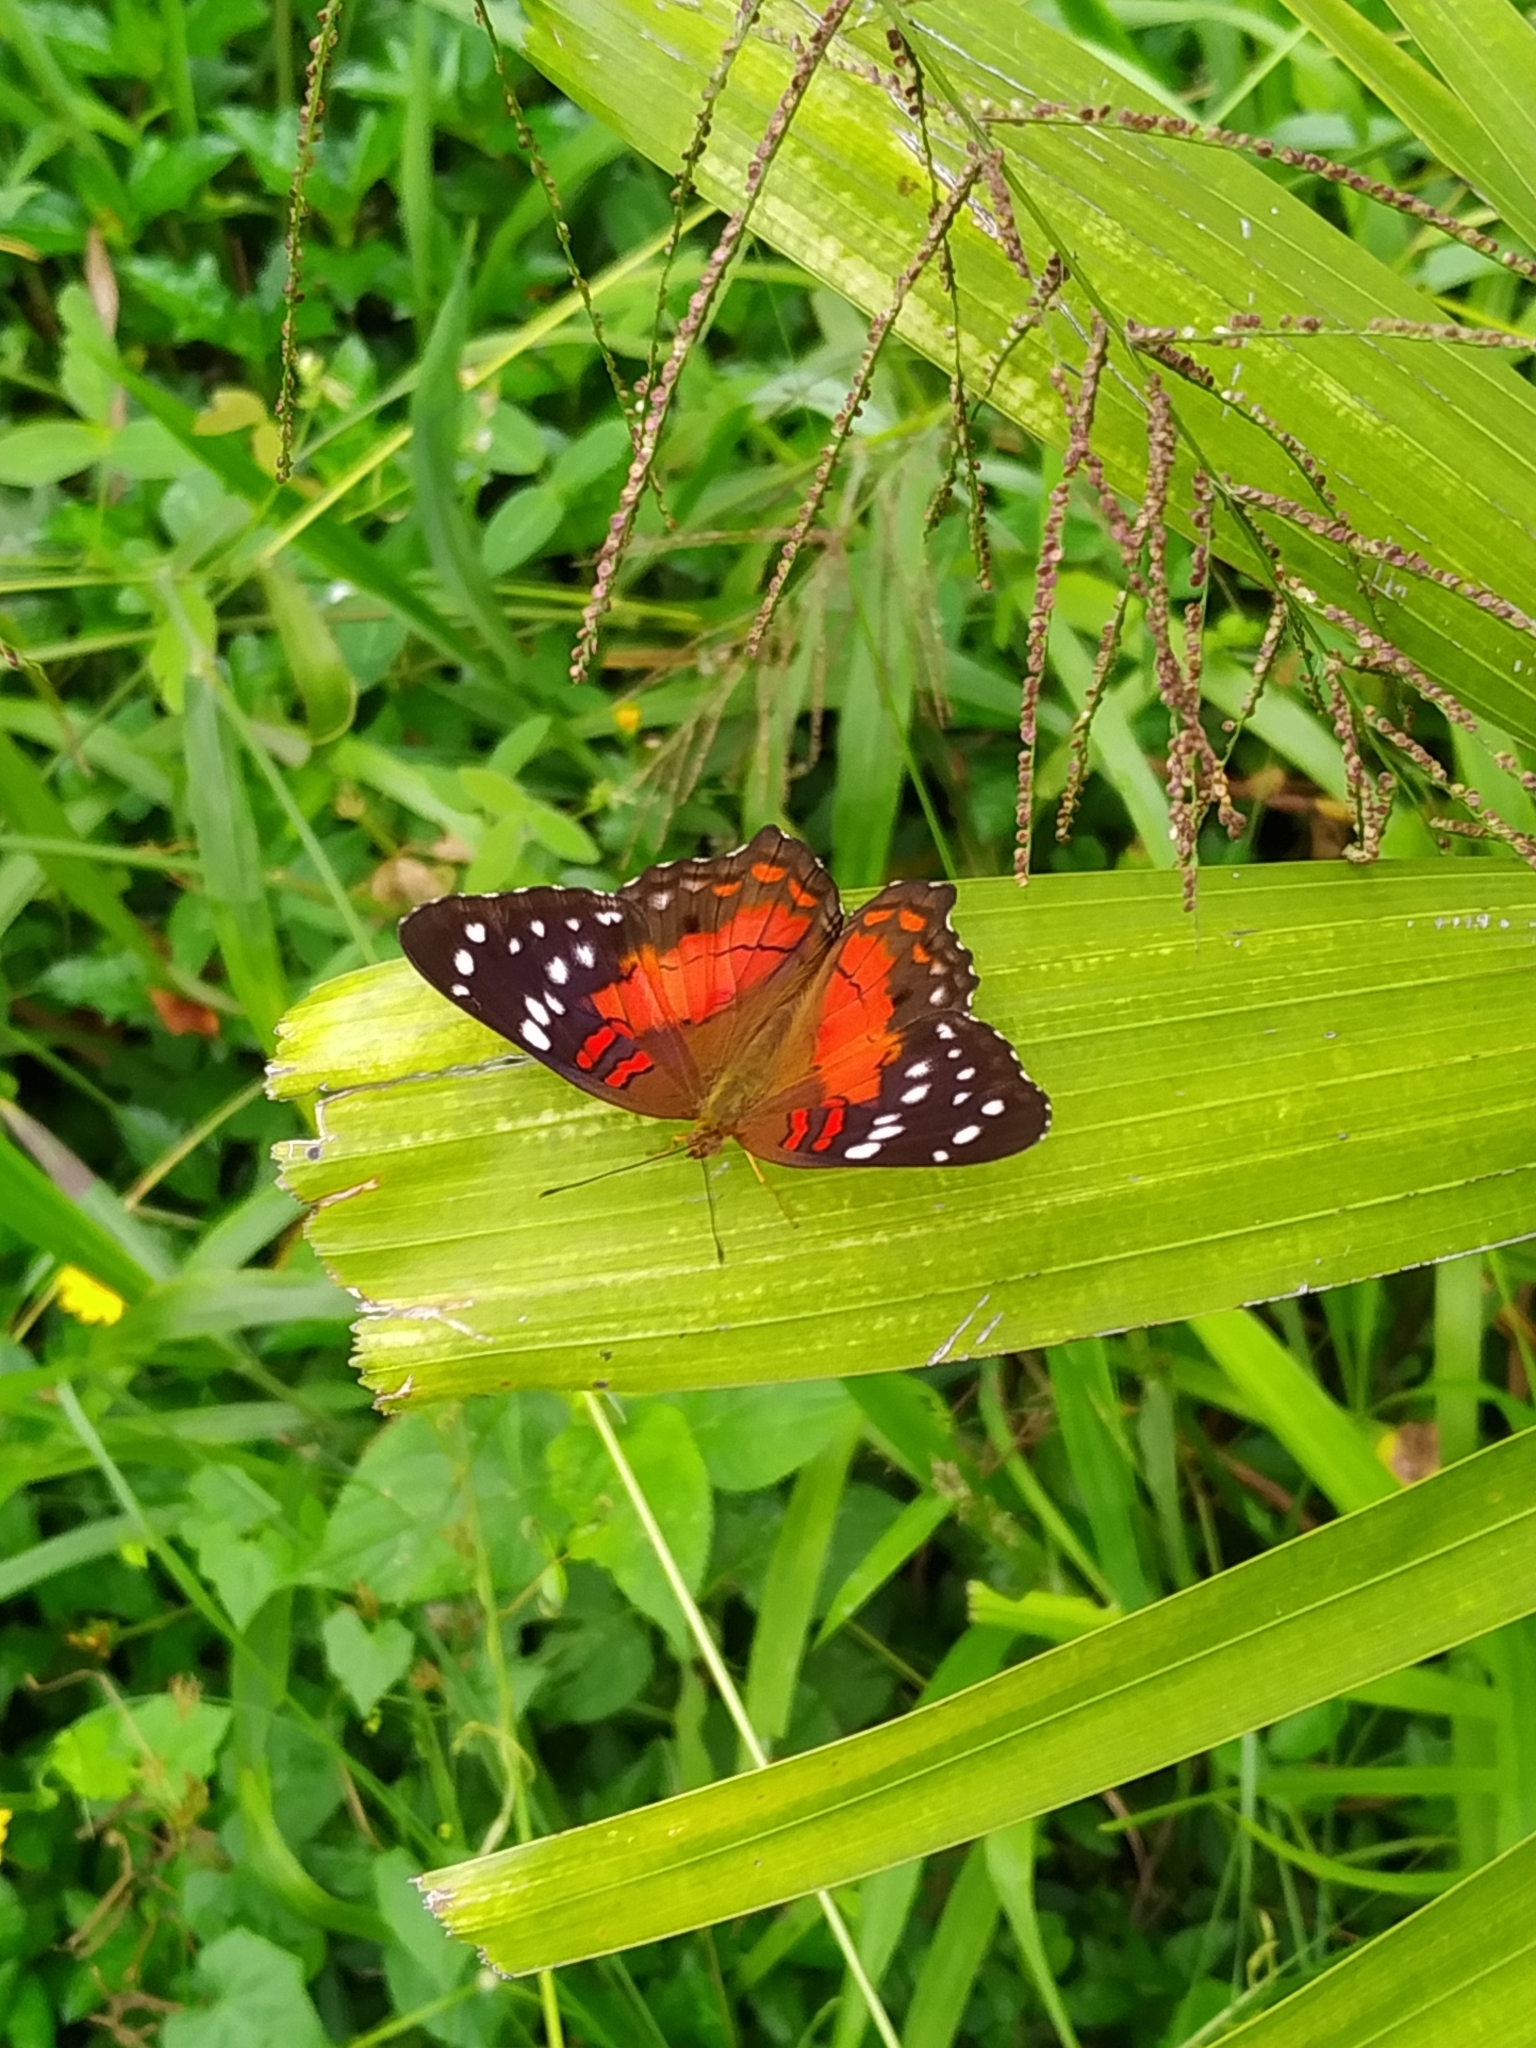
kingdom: Animalia
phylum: Arthropoda
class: Insecta
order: Lepidoptera
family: Nymphalidae
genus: Anartia
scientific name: Anartia amathea
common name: Red peacock
